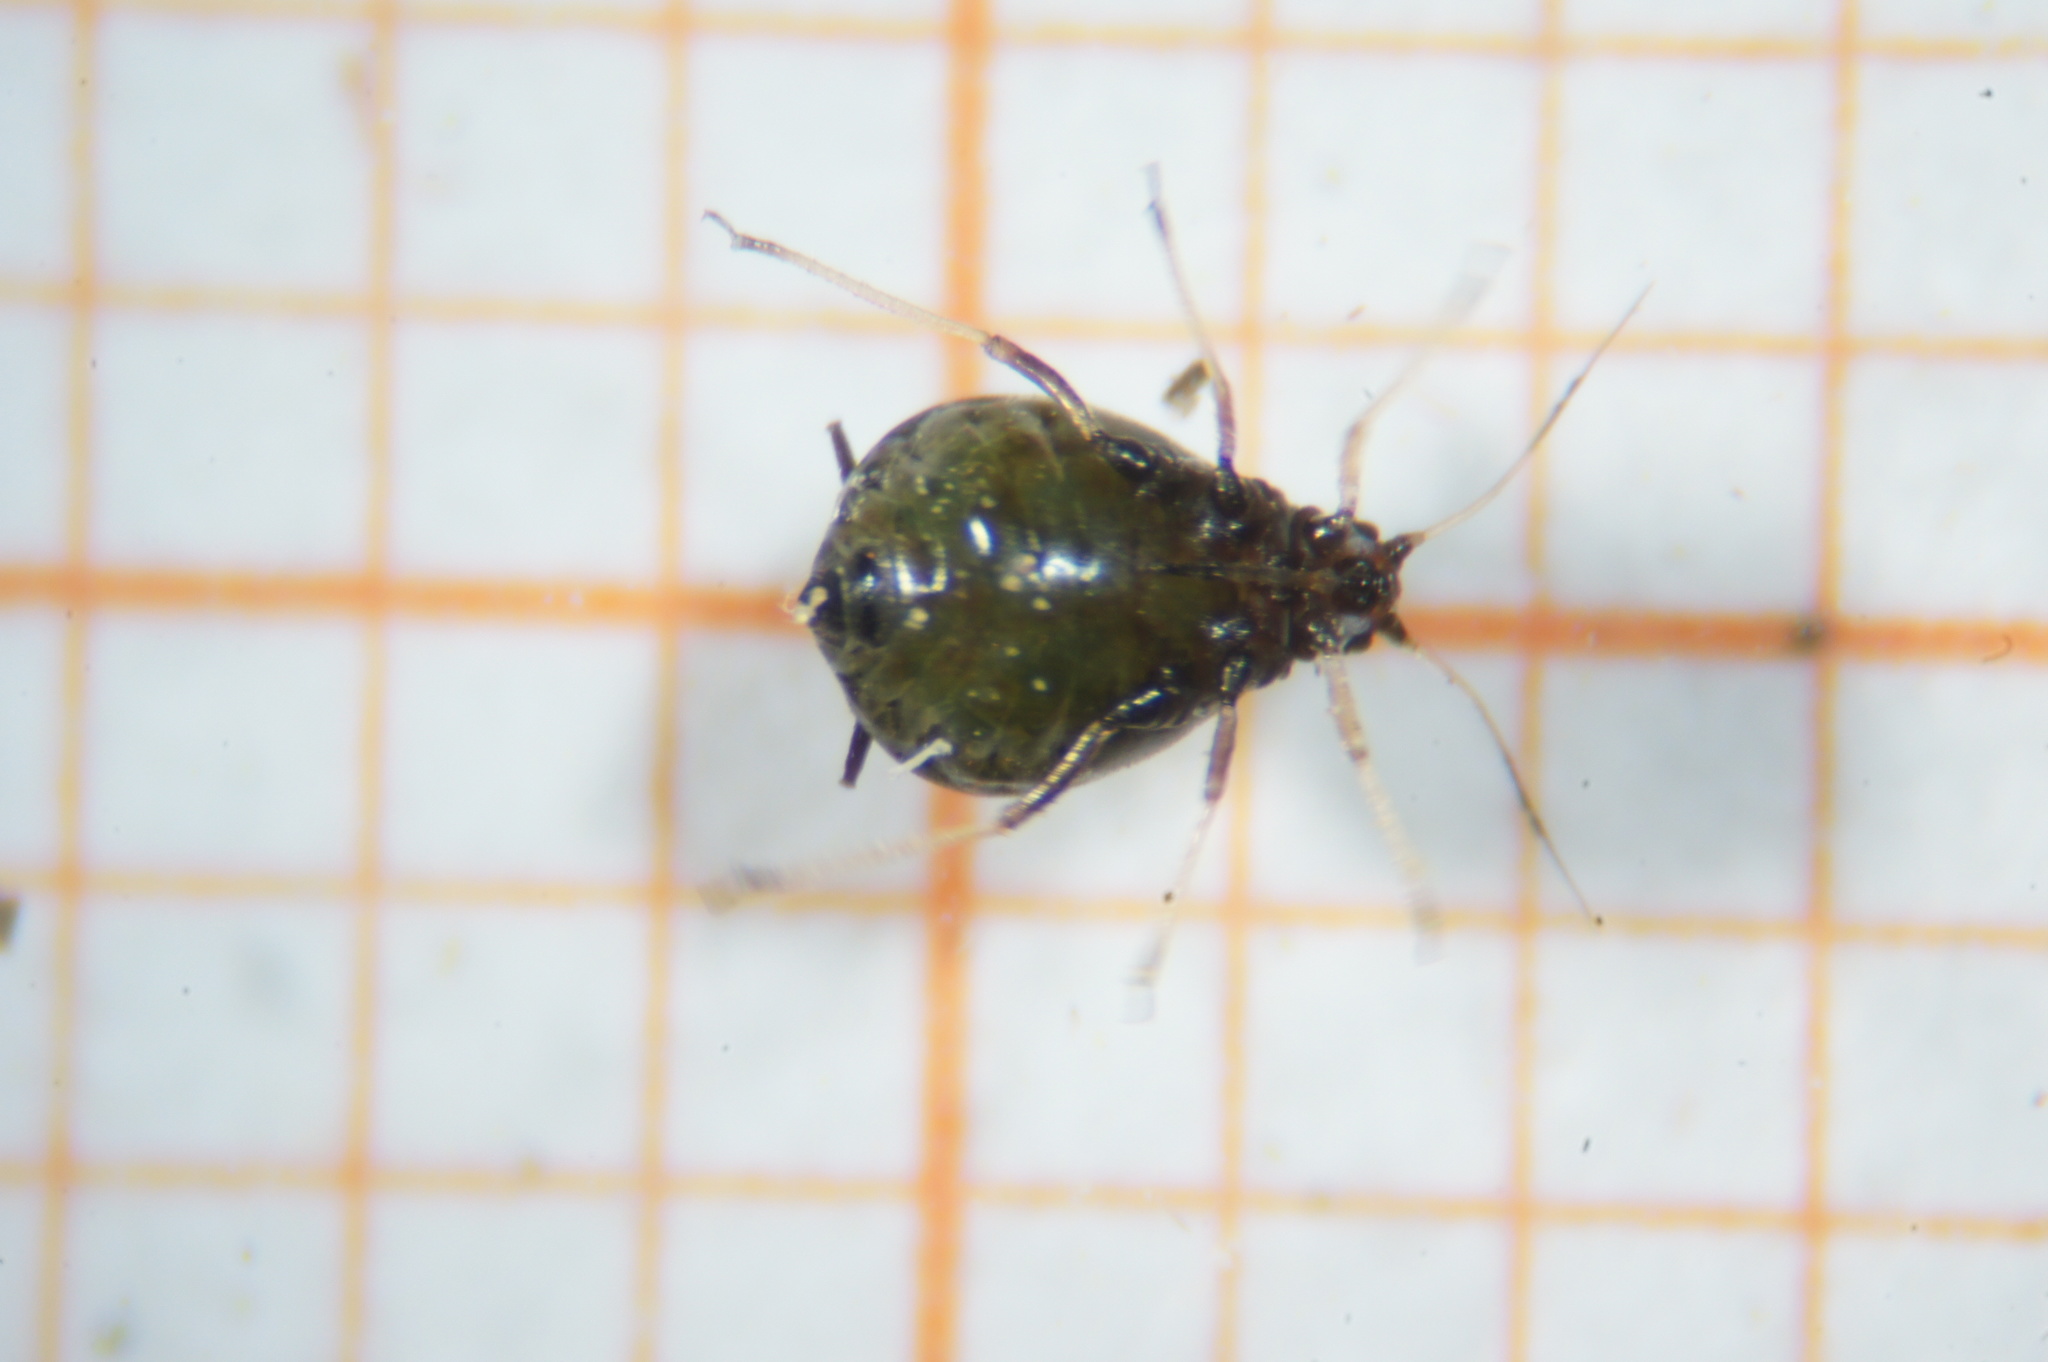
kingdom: Animalia
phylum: Arthropoda
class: Insecta
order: Hemiptera
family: Aphididae
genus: Brachycaudus
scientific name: Brachycaudus cardui
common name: Thistle aphid
